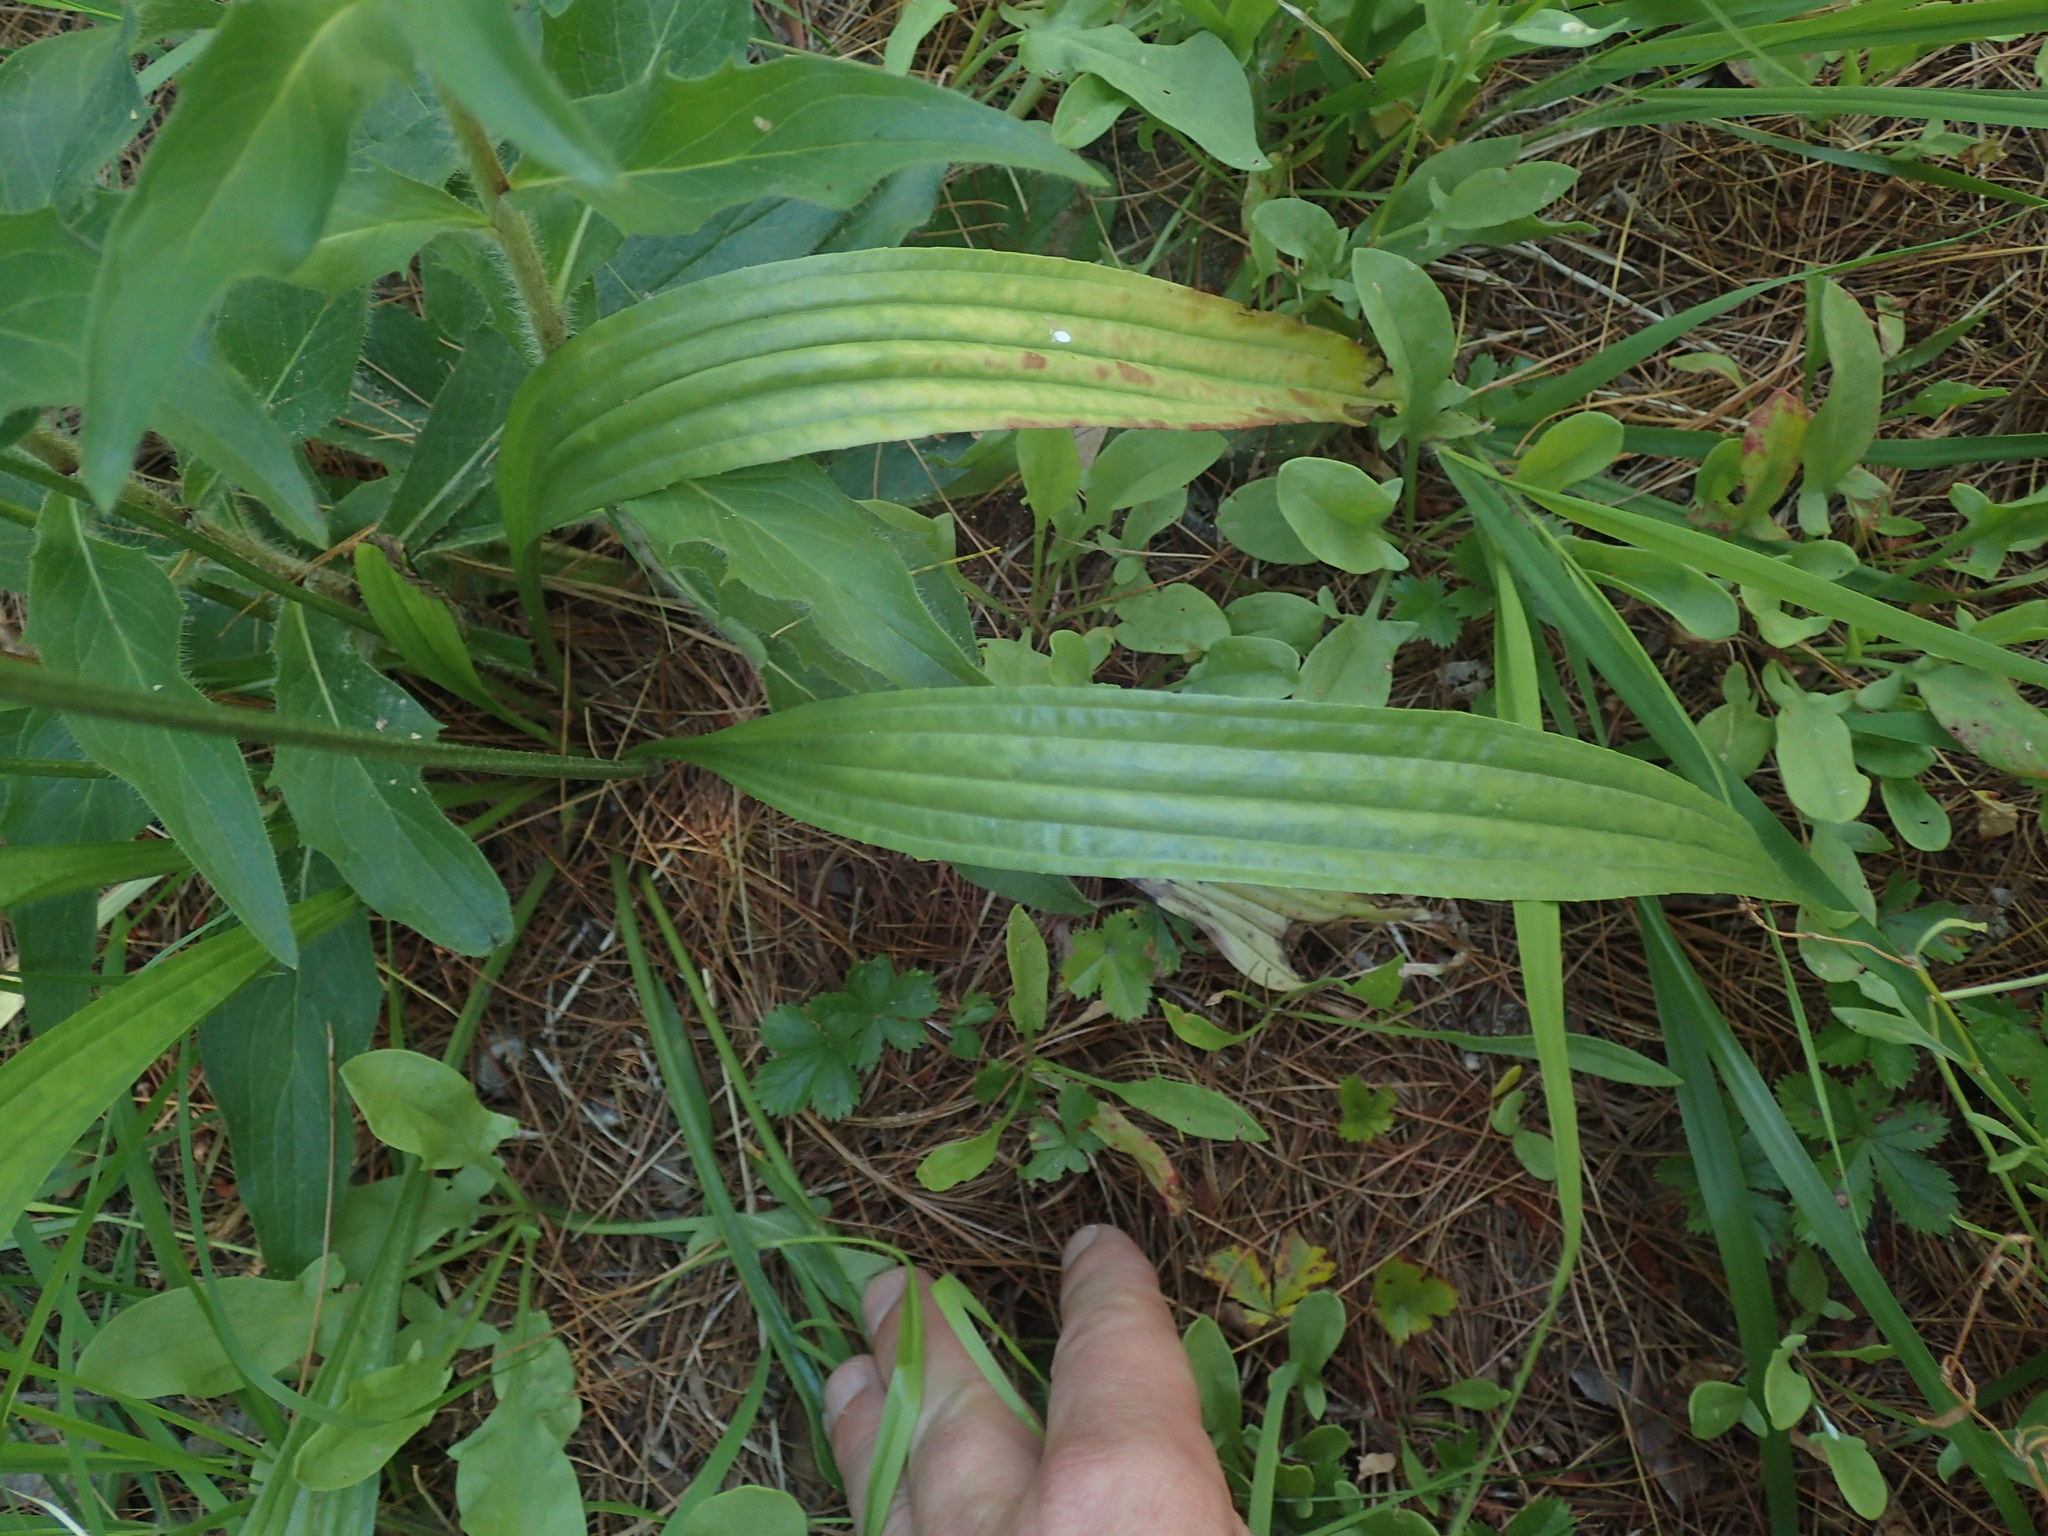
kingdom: Plantae
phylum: Tracheophyta
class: Magnoliopsida
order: Lamiales
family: Plantaginaceae
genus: Plantago
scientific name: Plantago lanceolata
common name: Ribwort plantain
